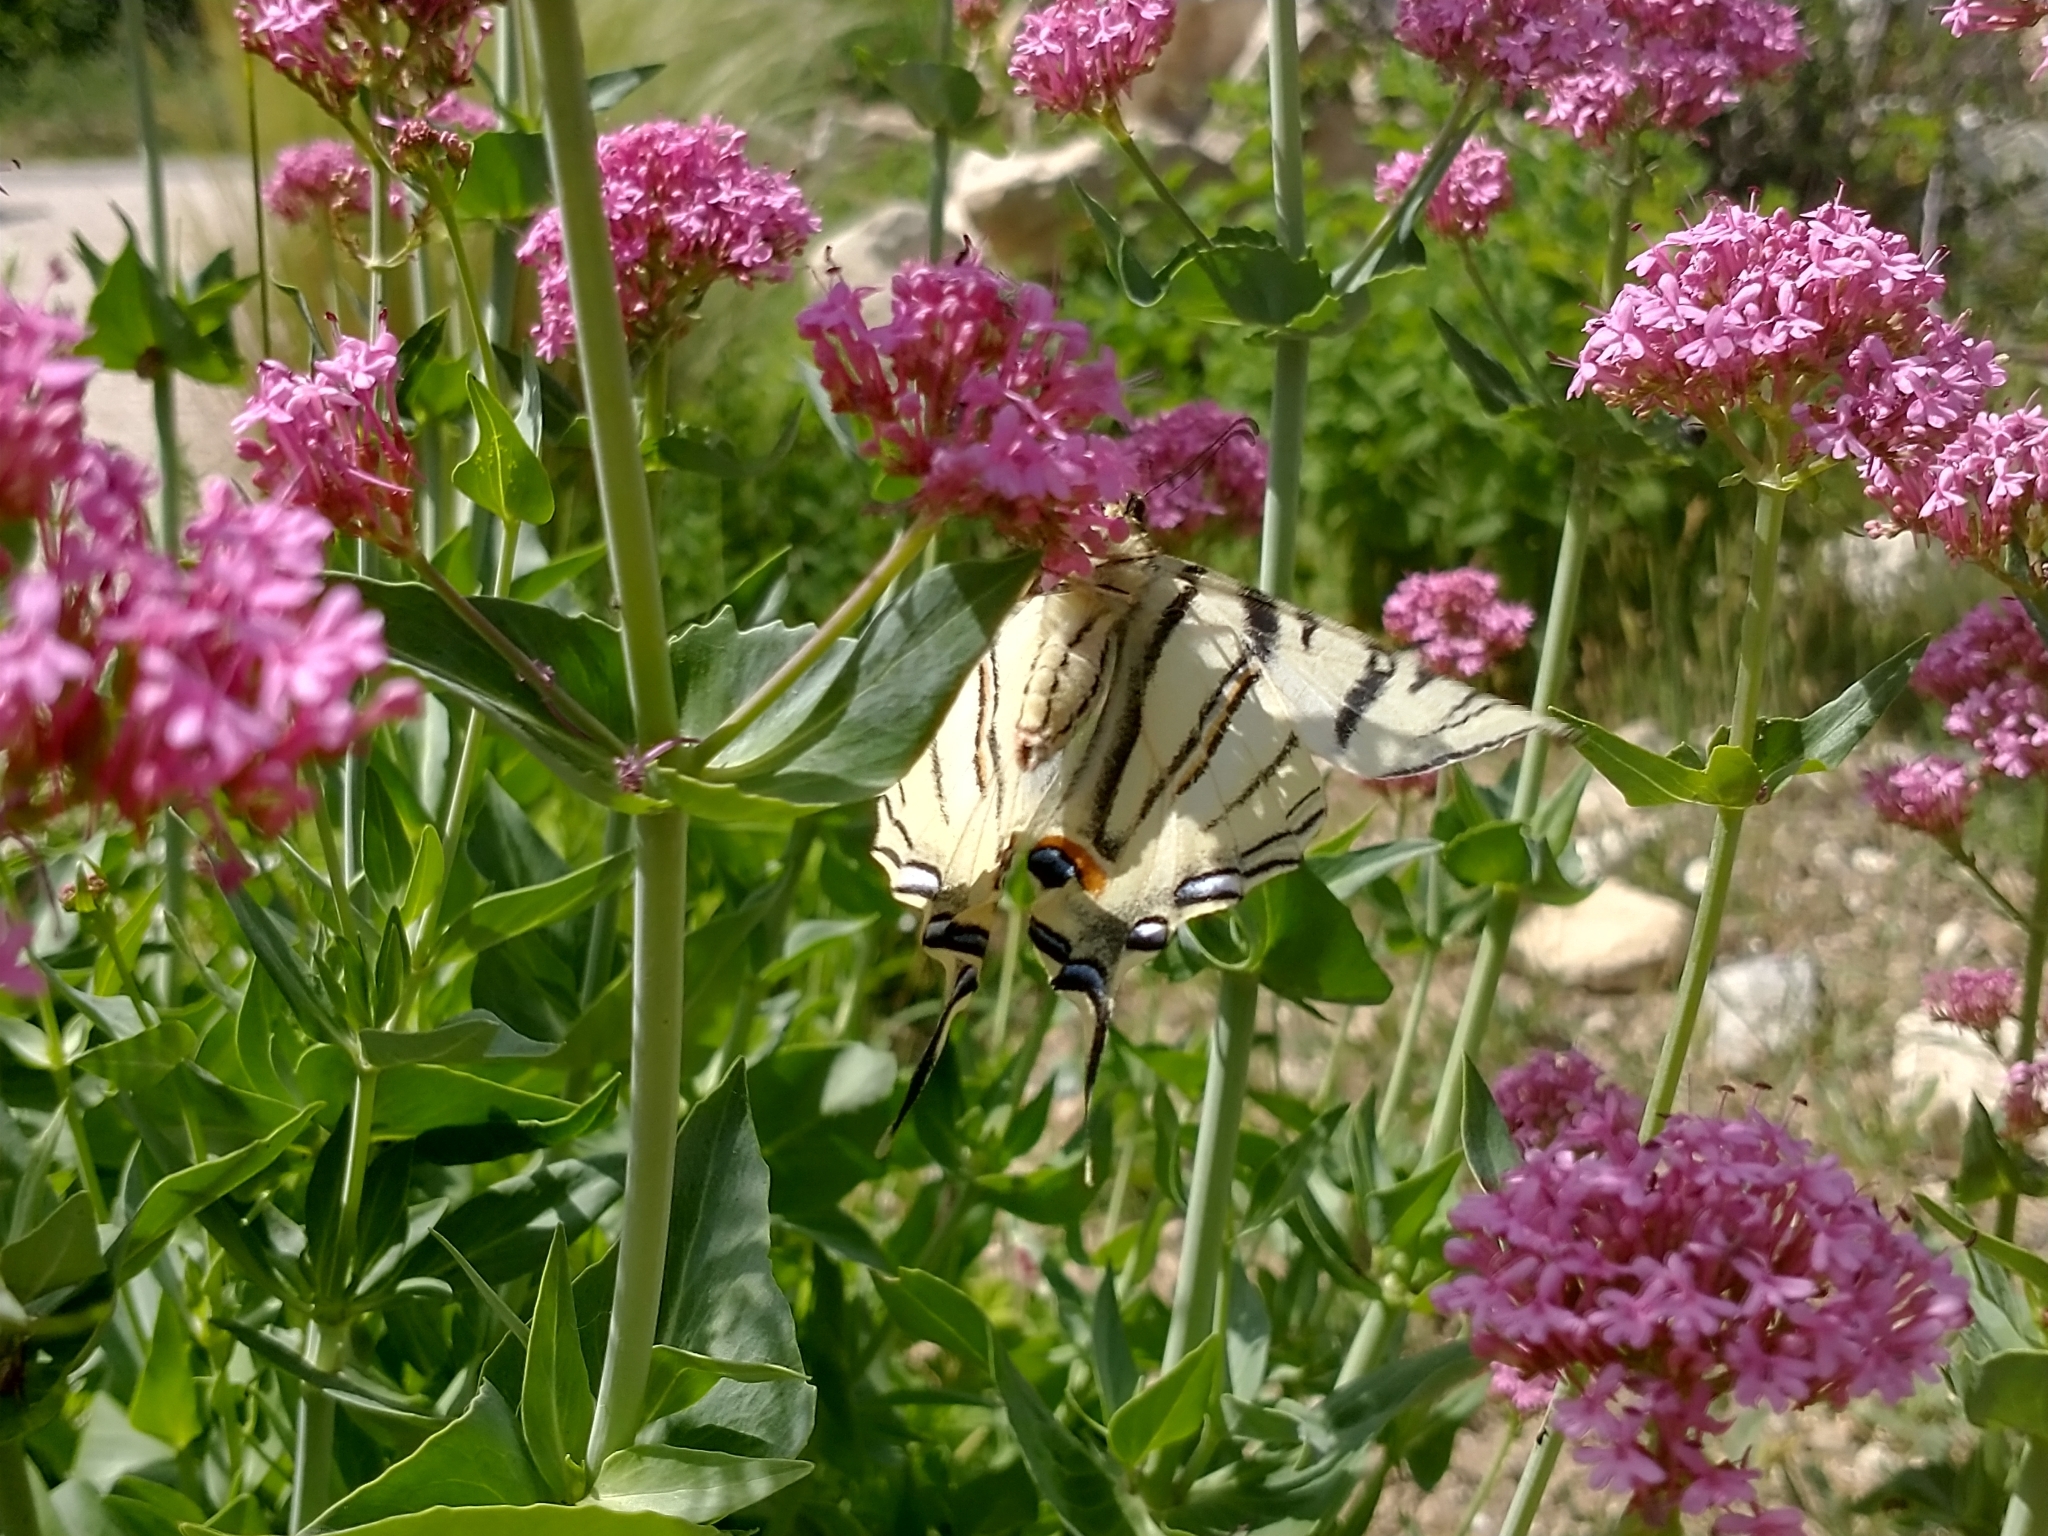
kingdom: Animalia
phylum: Arthropoda
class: Insecta
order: Lepidoptera
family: Papilionidae
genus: Iphiclides
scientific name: Iphiclides podalirius
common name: Scarce swallowtail
